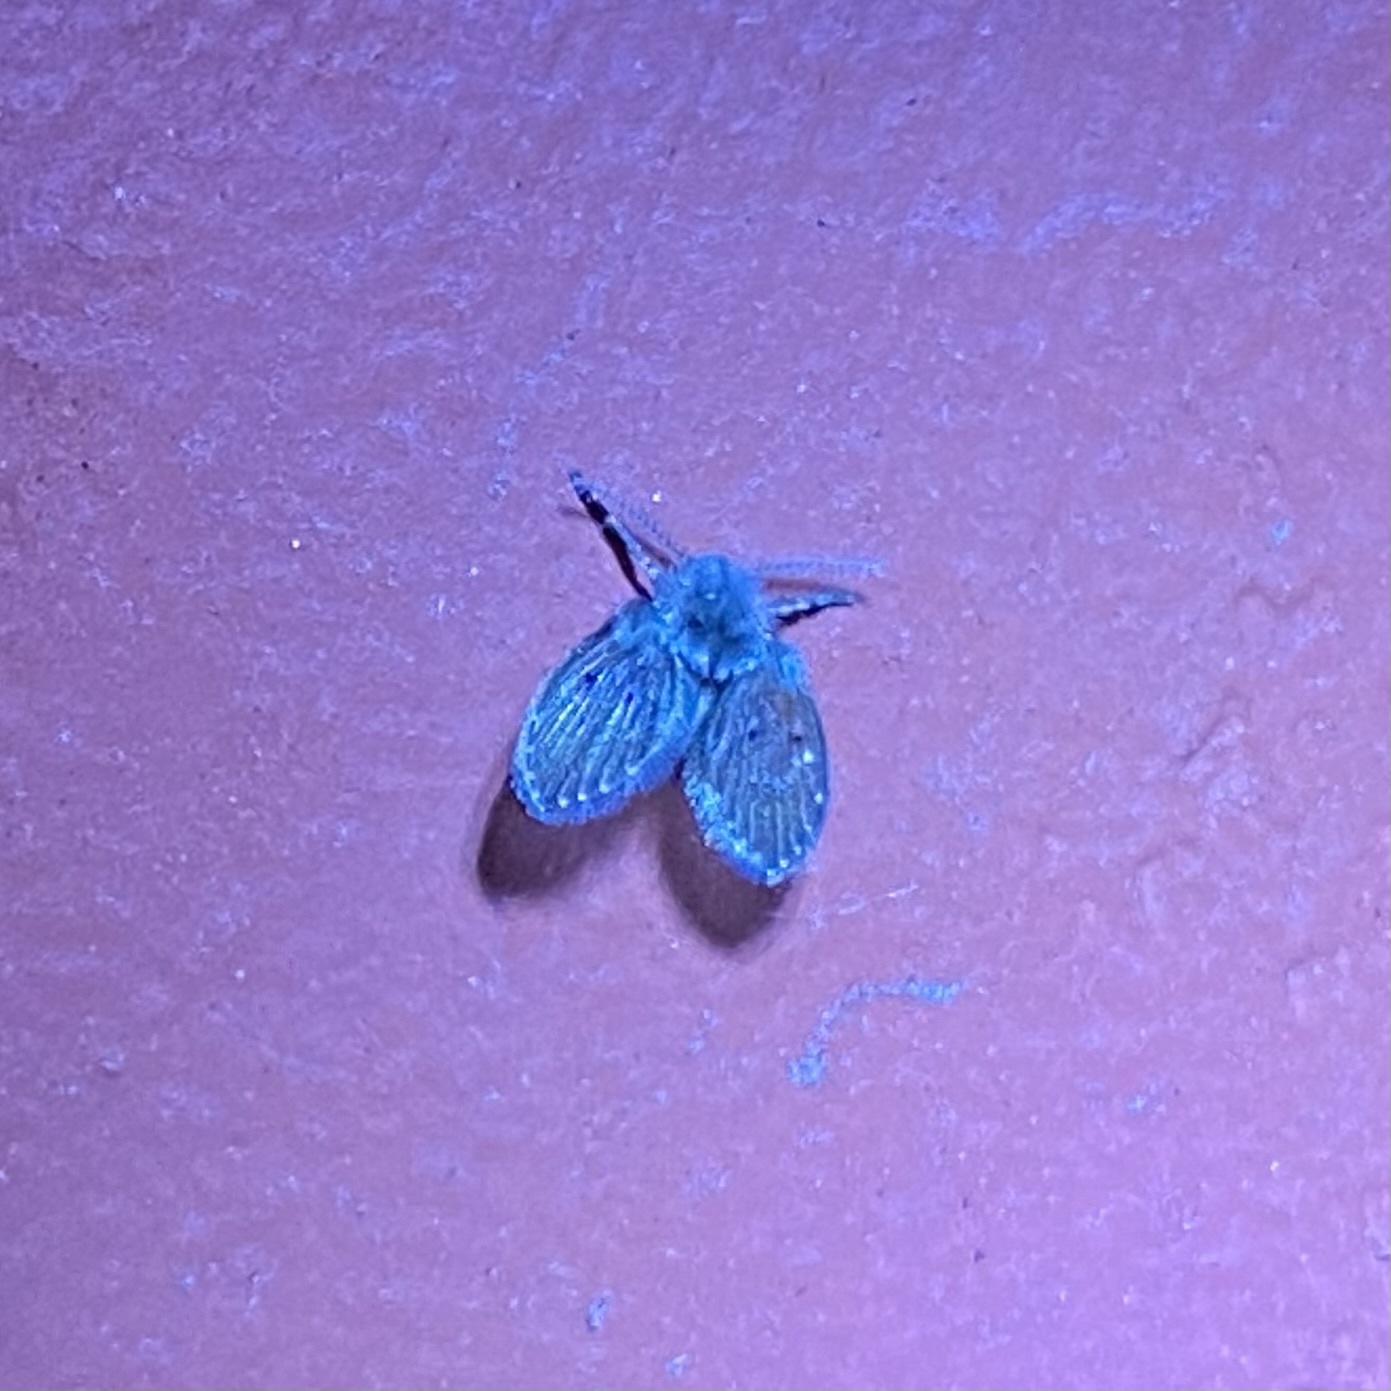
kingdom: Animalia
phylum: Arthropoda
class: Insecta
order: Diptera
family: Psychodidae
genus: Clogmia
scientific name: Clogmia albipunctatus
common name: White-spotted moth fly
